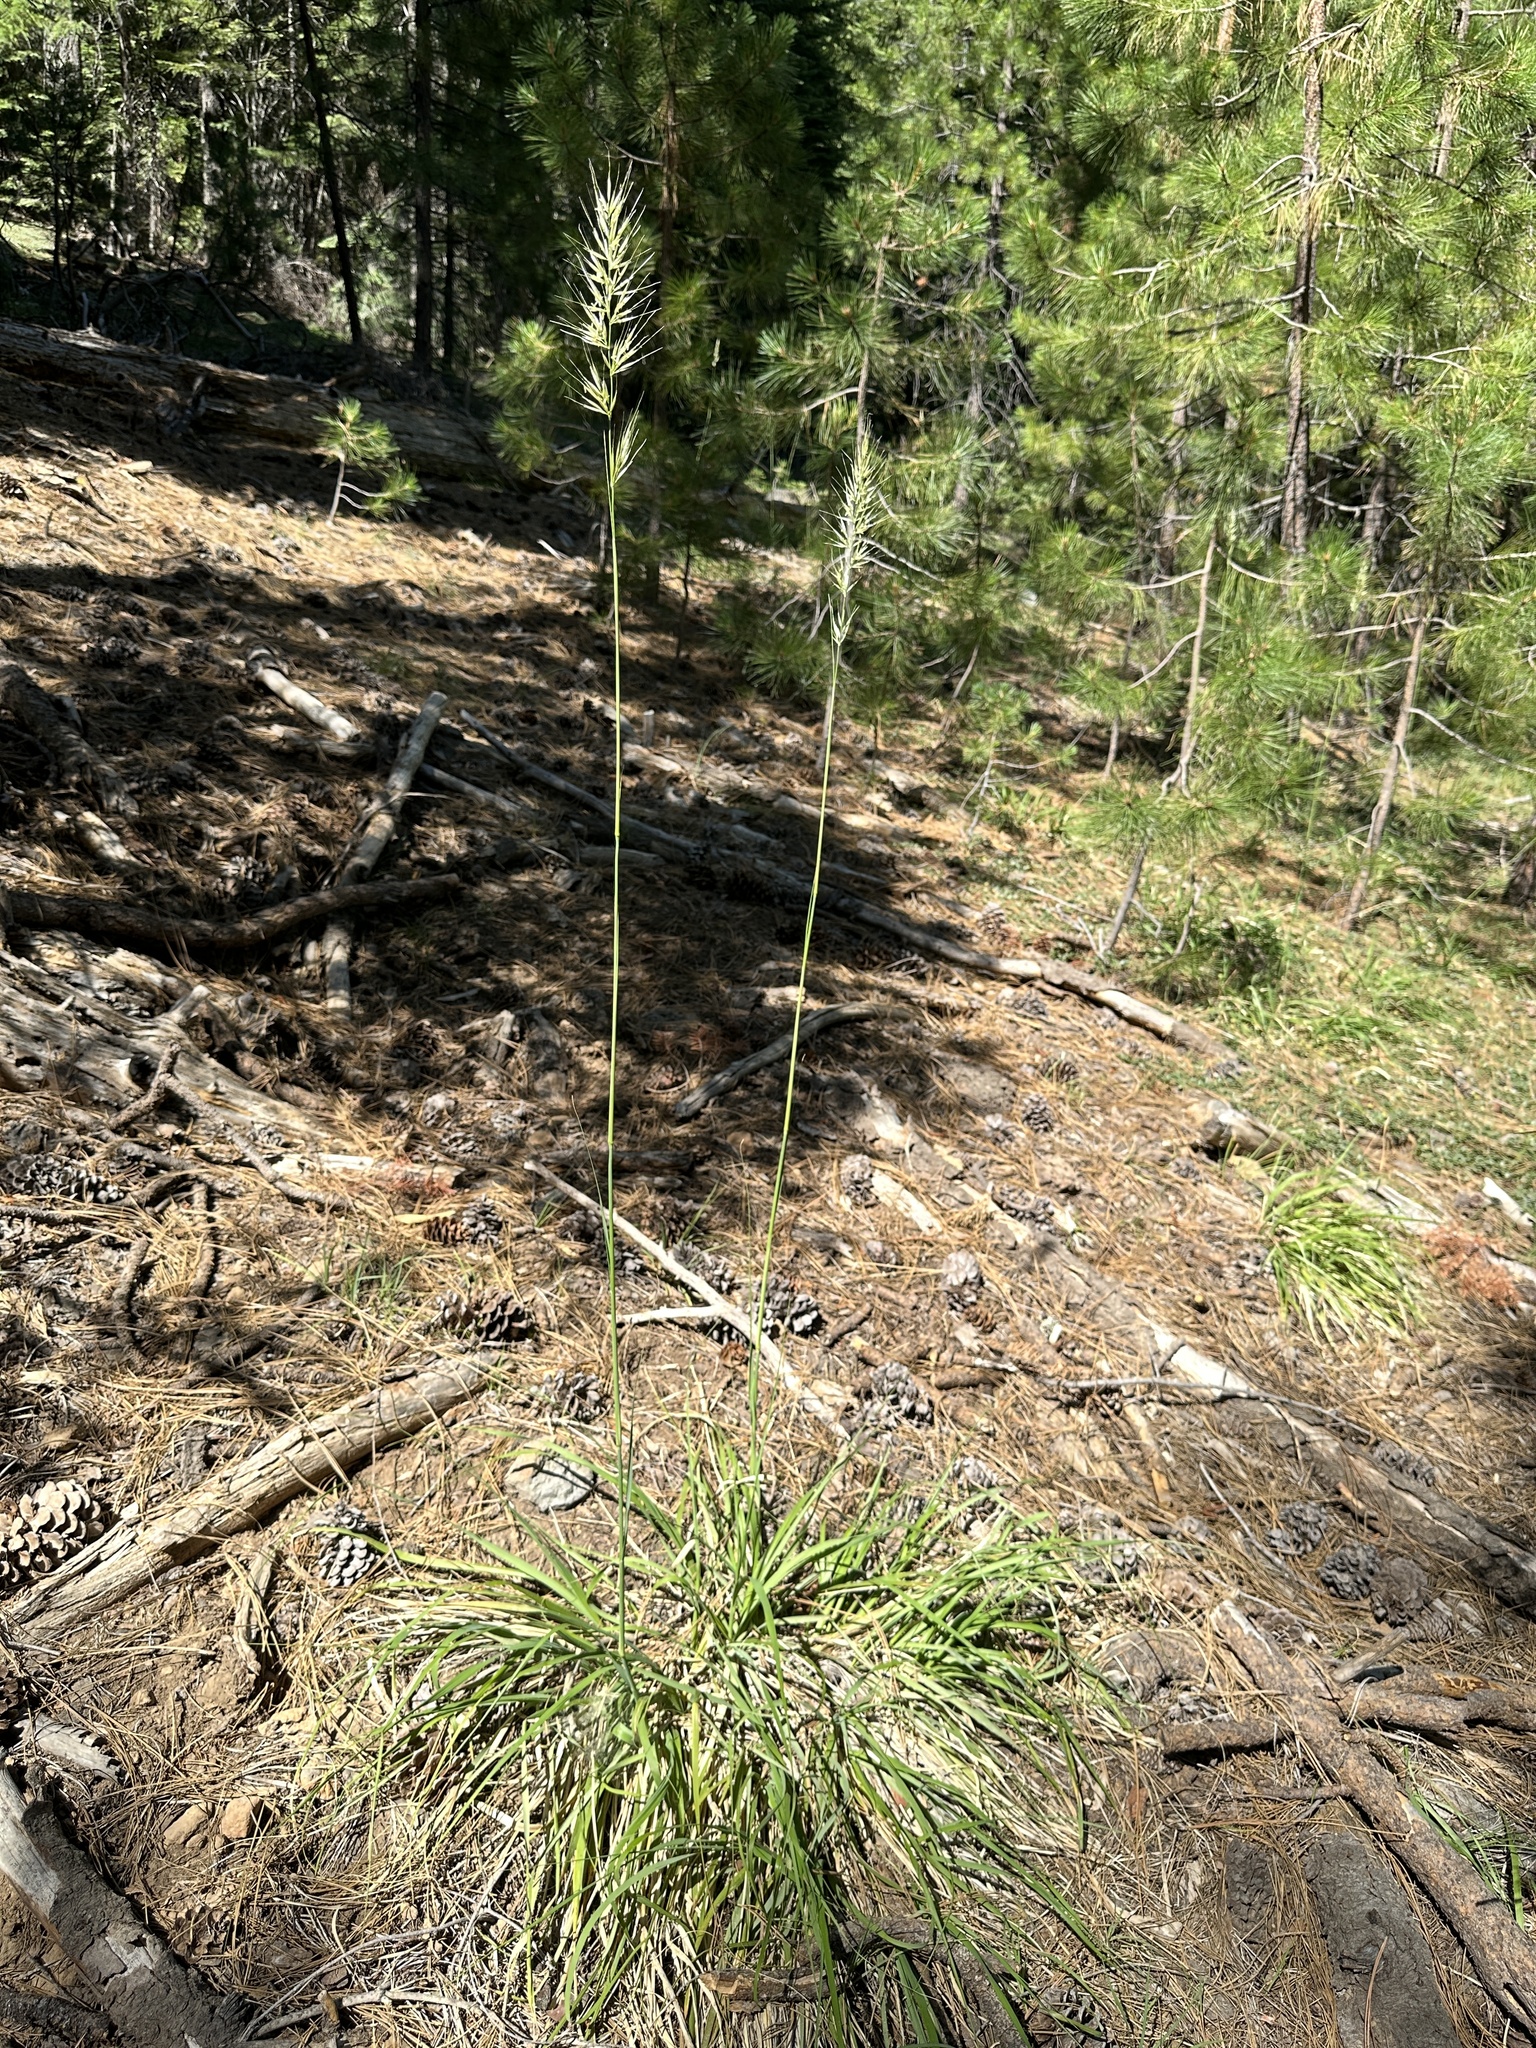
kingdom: Plantae
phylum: Tracheophyta
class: Liliopsida
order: Poales
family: Poaceae
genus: Barkworthia
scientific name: Barkworthia stillmanii
